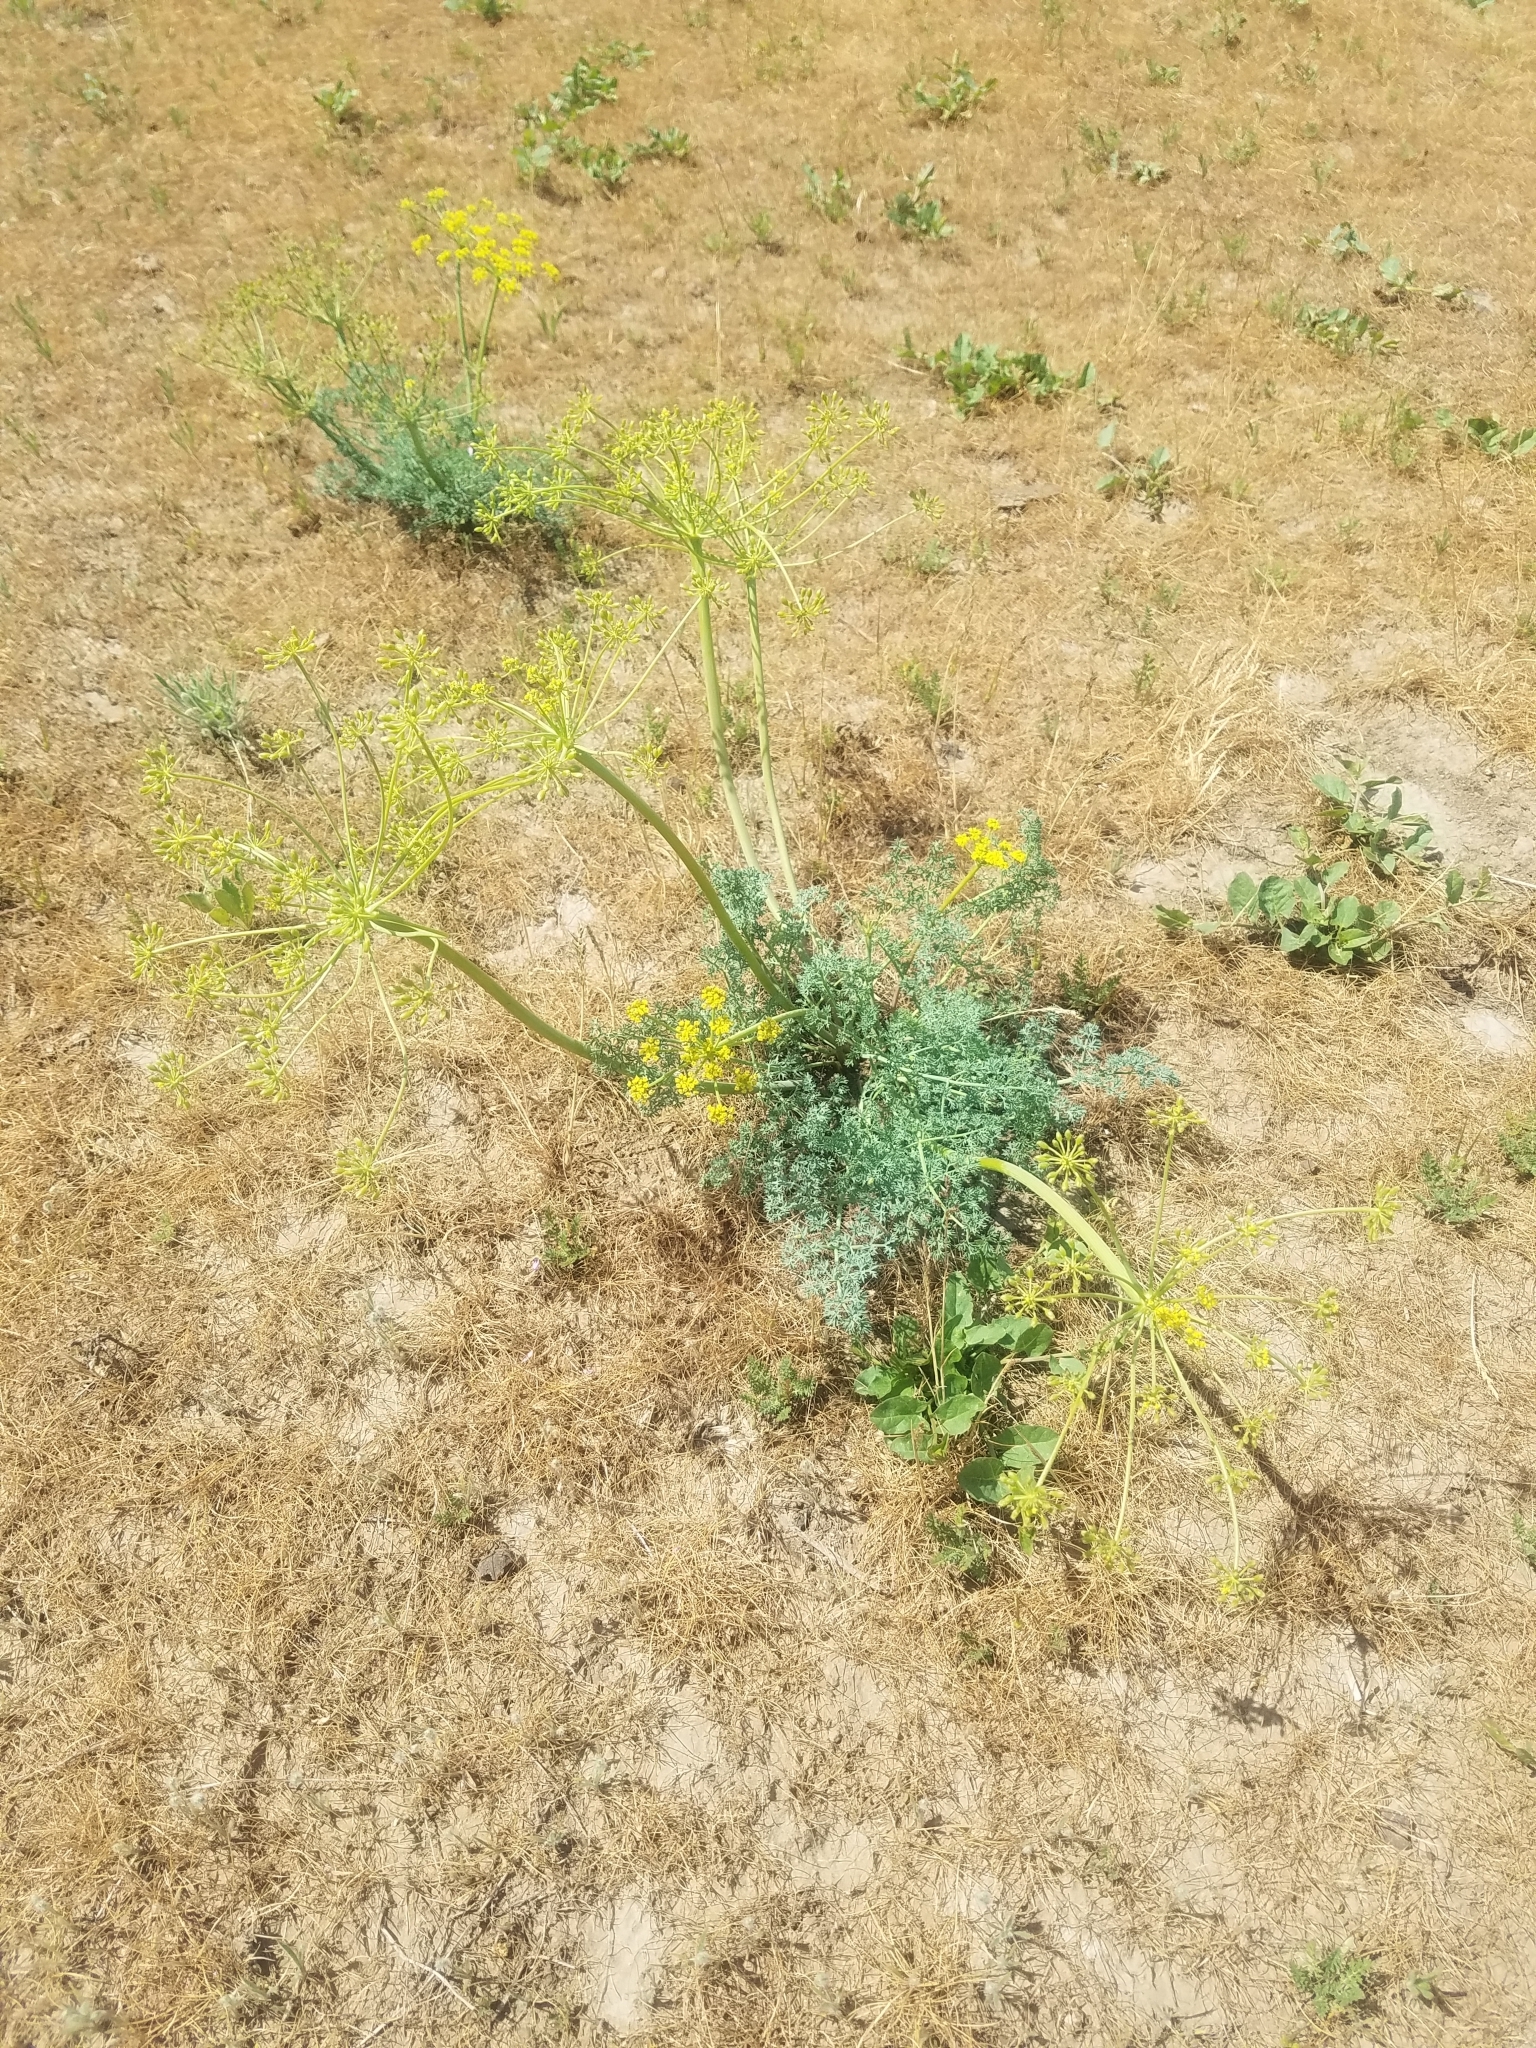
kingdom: Plantae
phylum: Tracheophyta
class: Magnoliopsida
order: Apiales
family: Apiaceae
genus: Lomatium
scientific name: Lomatium papilioniferum
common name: Butterfly lomatium
